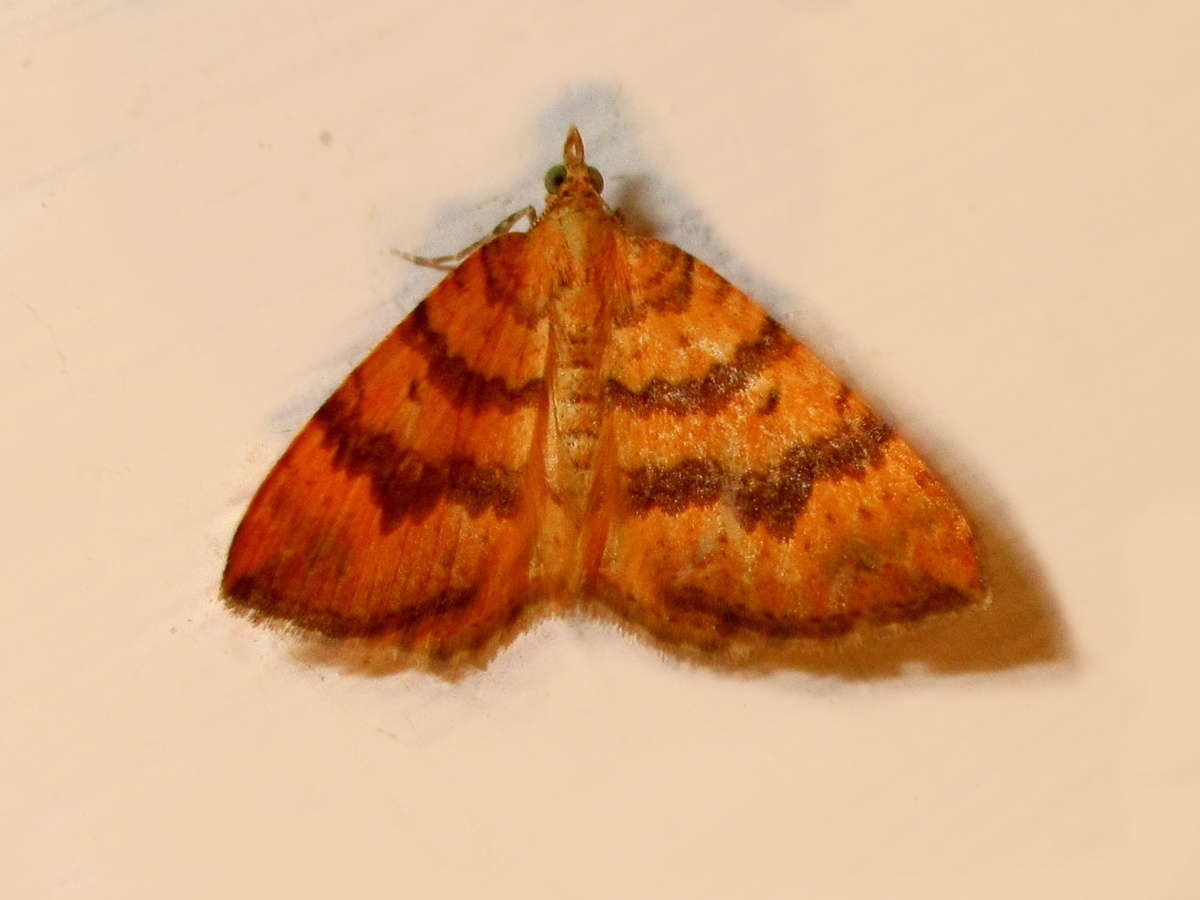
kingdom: Animalia
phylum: Arthropoda
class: Insecta
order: Lepidoptera
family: Geometridae
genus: Chrysolarentia
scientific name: Chrysolarentia
